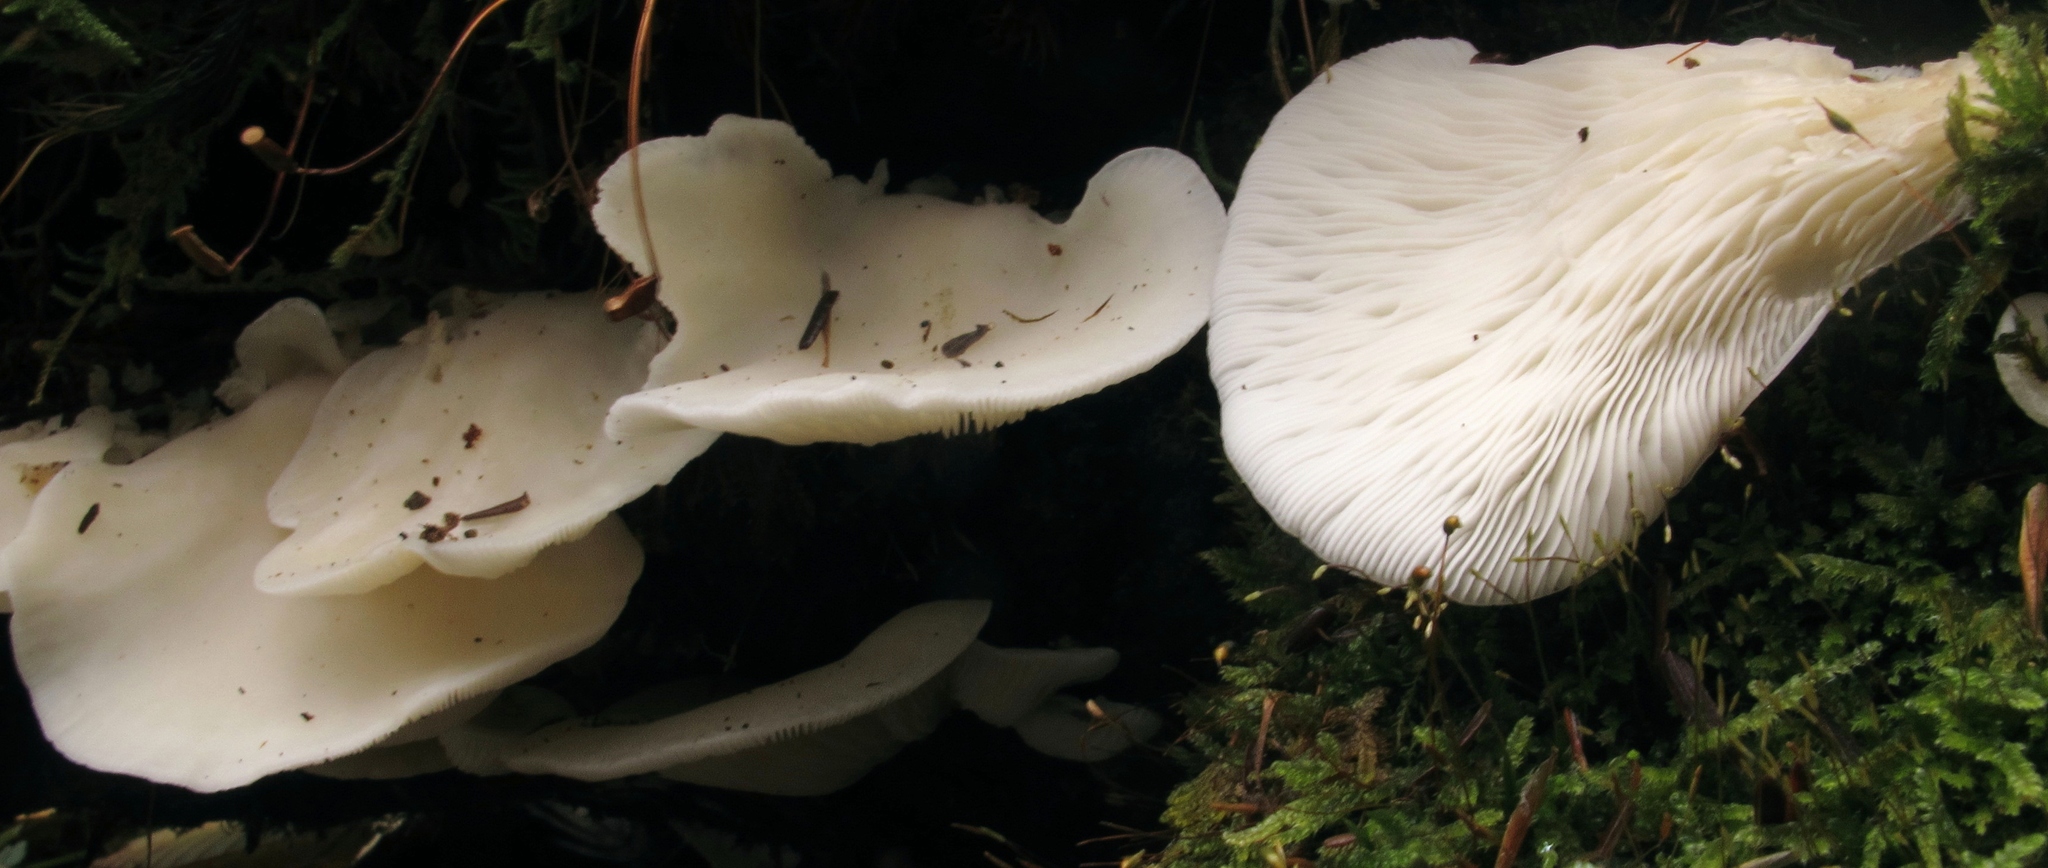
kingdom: Fungi
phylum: Basidiomycota
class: Agaricomycetes
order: Agaricales
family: Marasmiaceae
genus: Pleurocybella
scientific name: Pleurocybella porrigens
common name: Angel's wings
